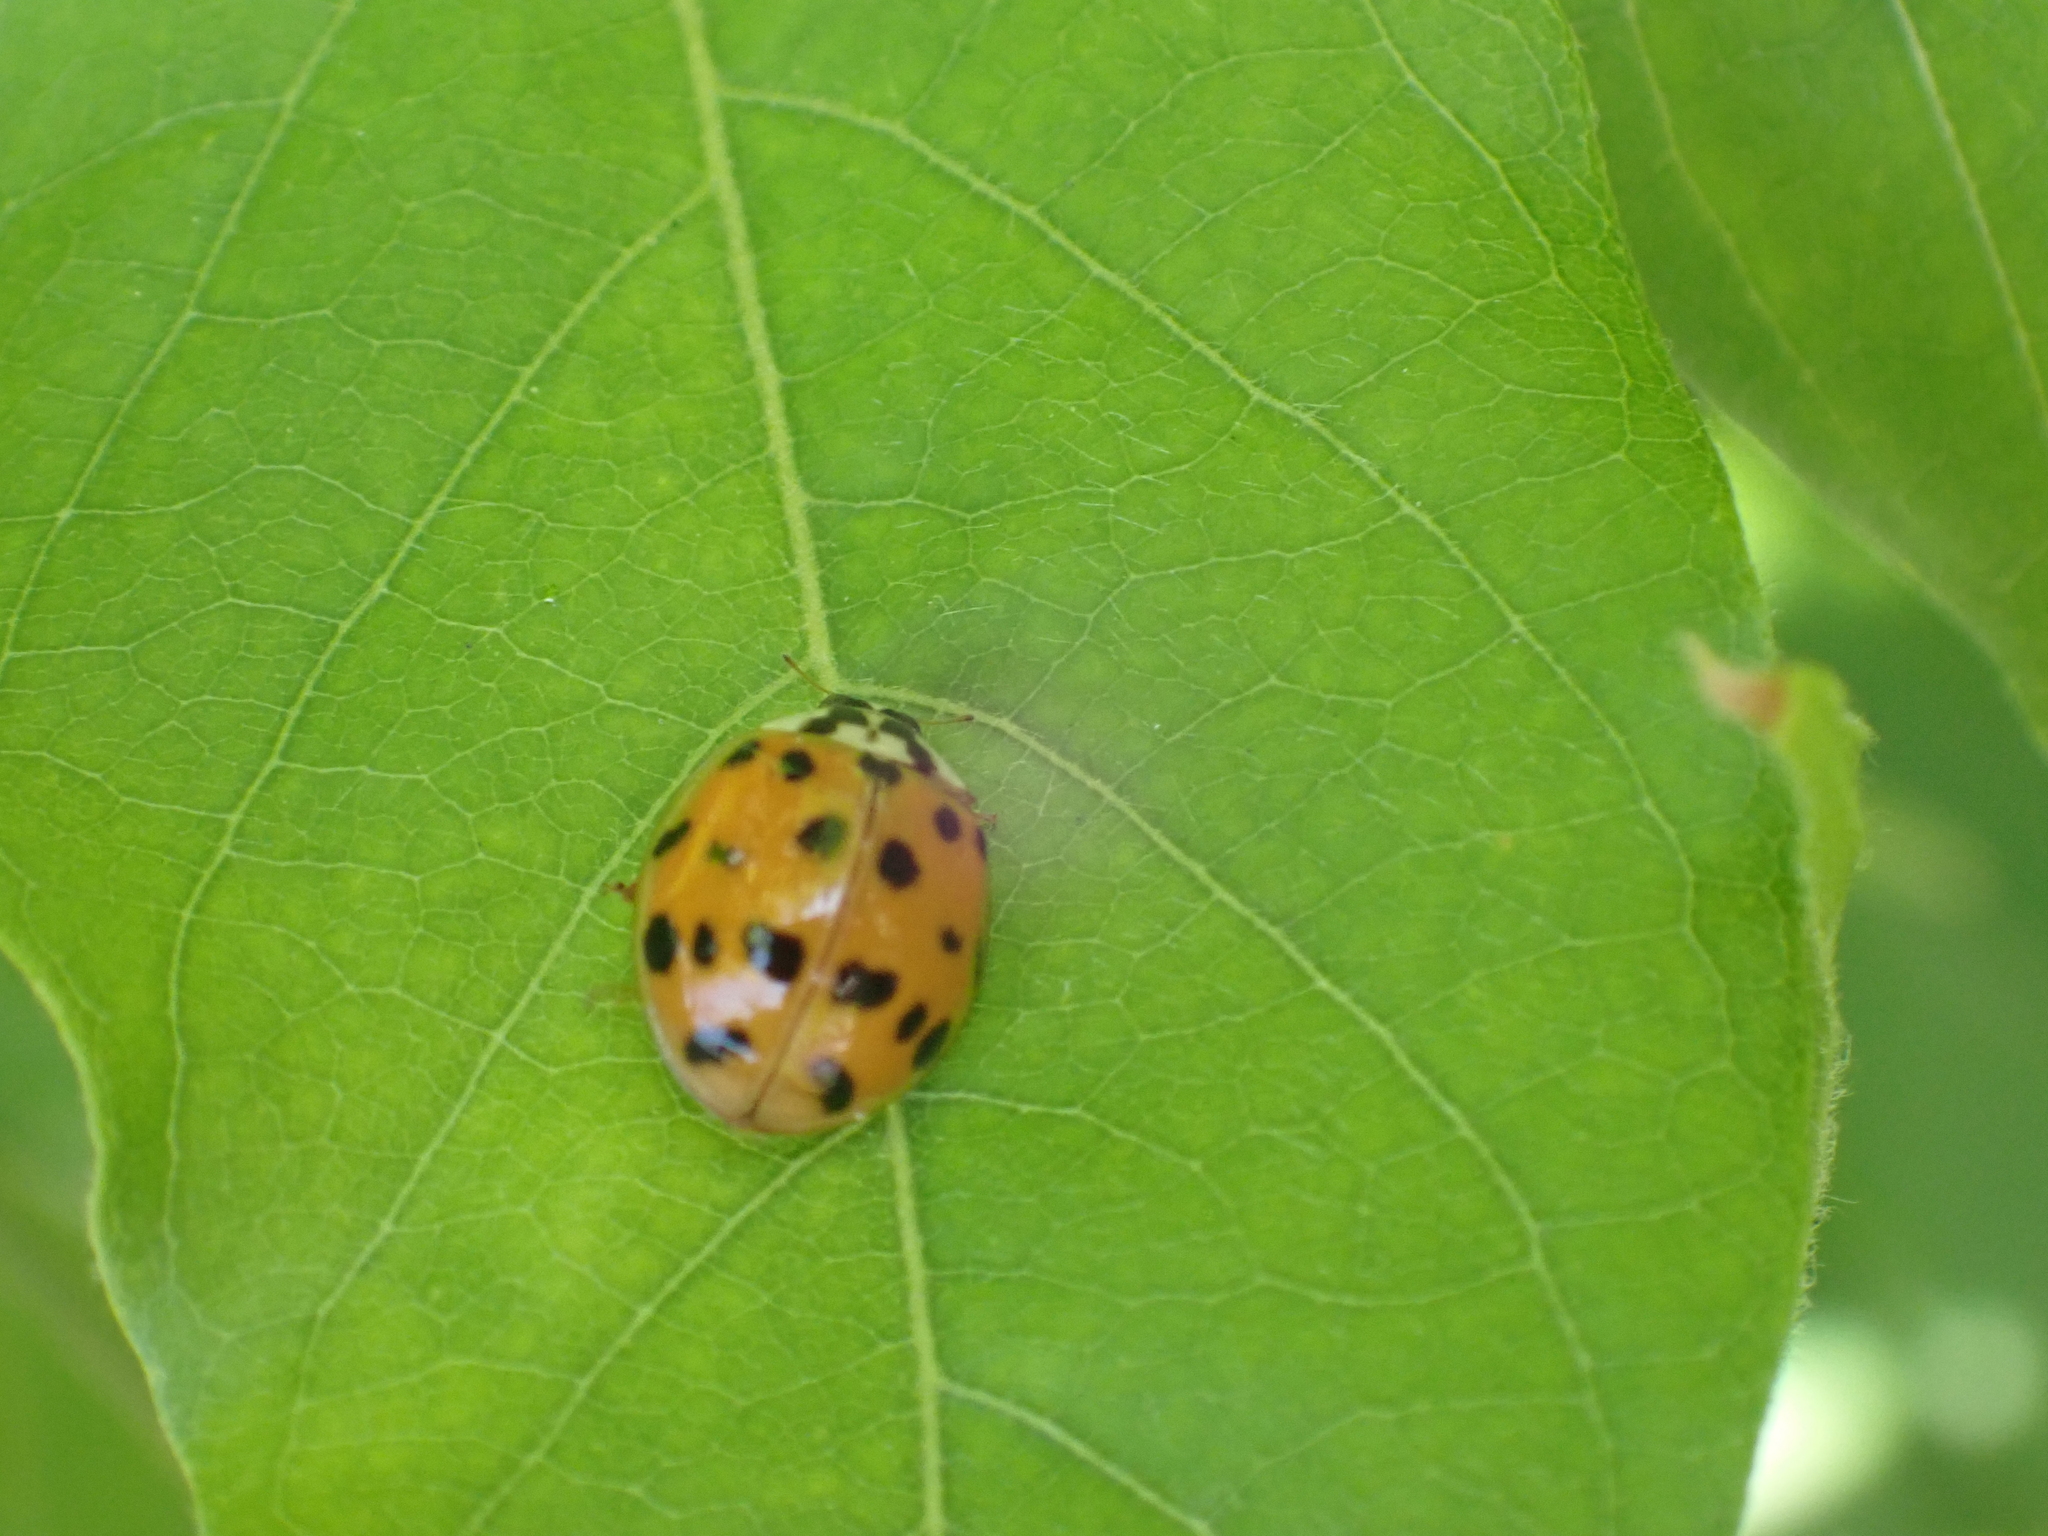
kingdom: Animalia
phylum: Arthropoda
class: Insecta
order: Coleoptera
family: Coccinellidae
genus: Harmonia
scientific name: Harmonia axyridis
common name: Harlequin ladybird
